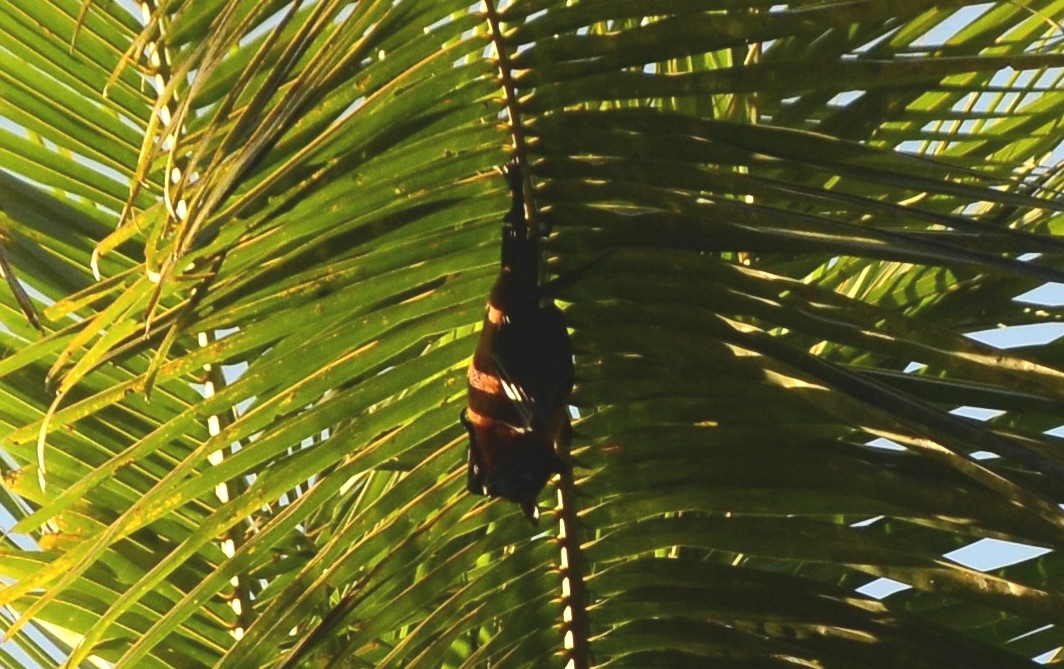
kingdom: Animalia
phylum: Chordata
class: Mammalia
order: Chiroptera
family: Pteropodidae
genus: Pteropus
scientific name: Pteropus vampyrus
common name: Large flying fox
